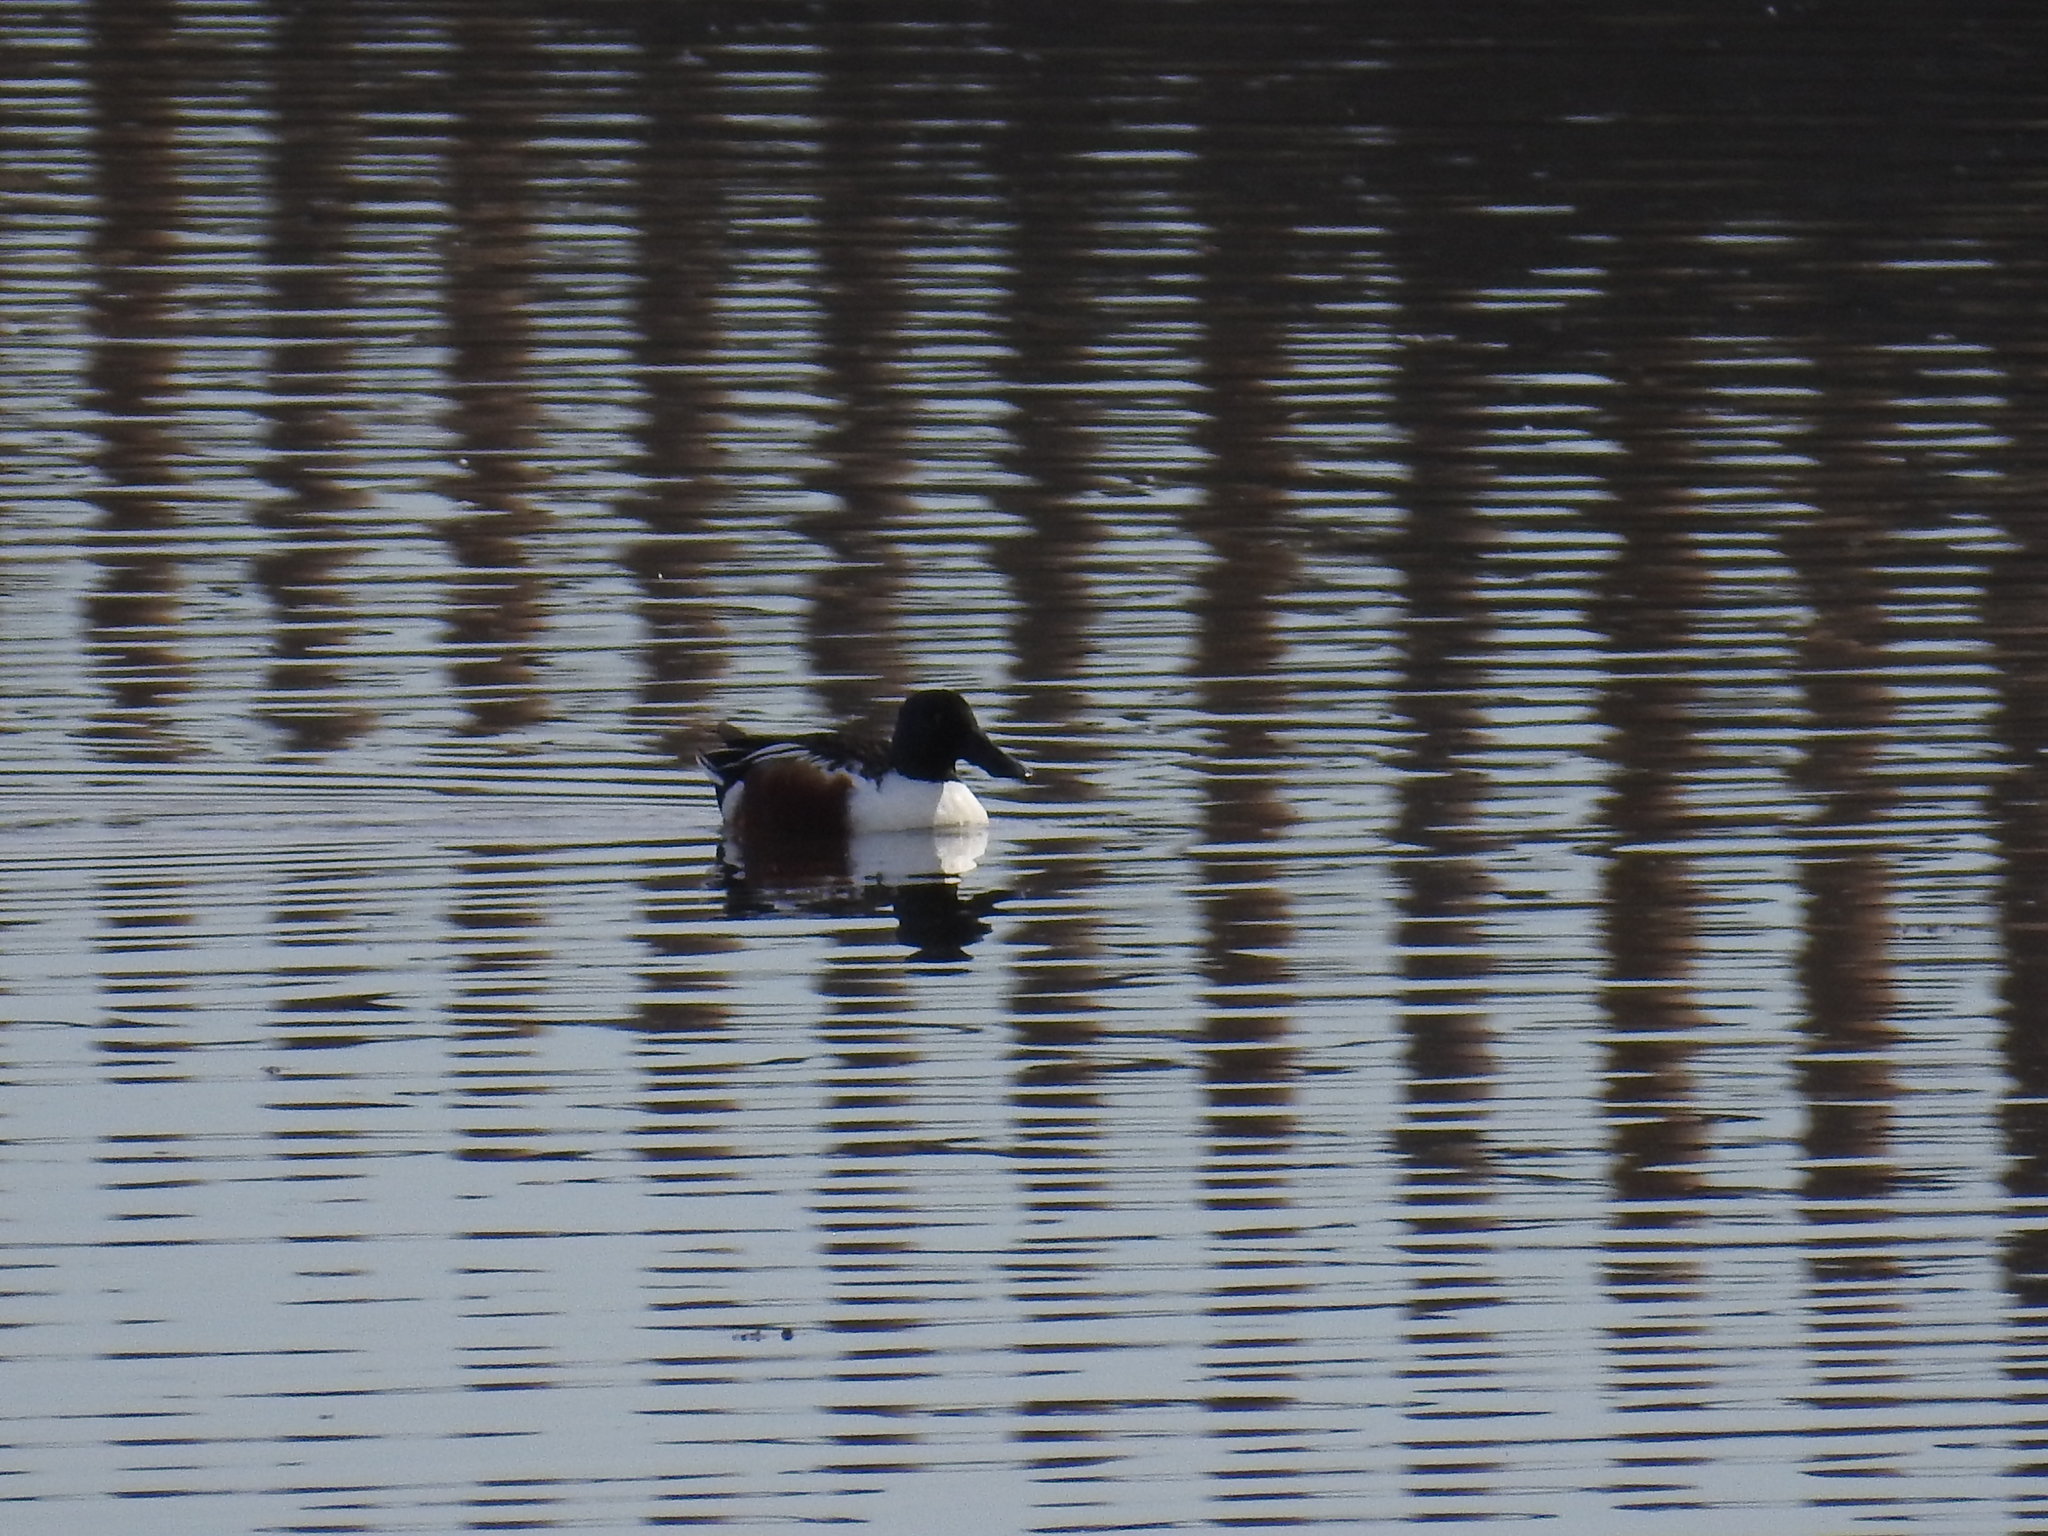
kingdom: Animalia
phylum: Chordata
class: Aves
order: Anseriformes
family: Anatidae
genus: Spatula
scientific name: Spatula clypeata
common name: Northern shoveler
